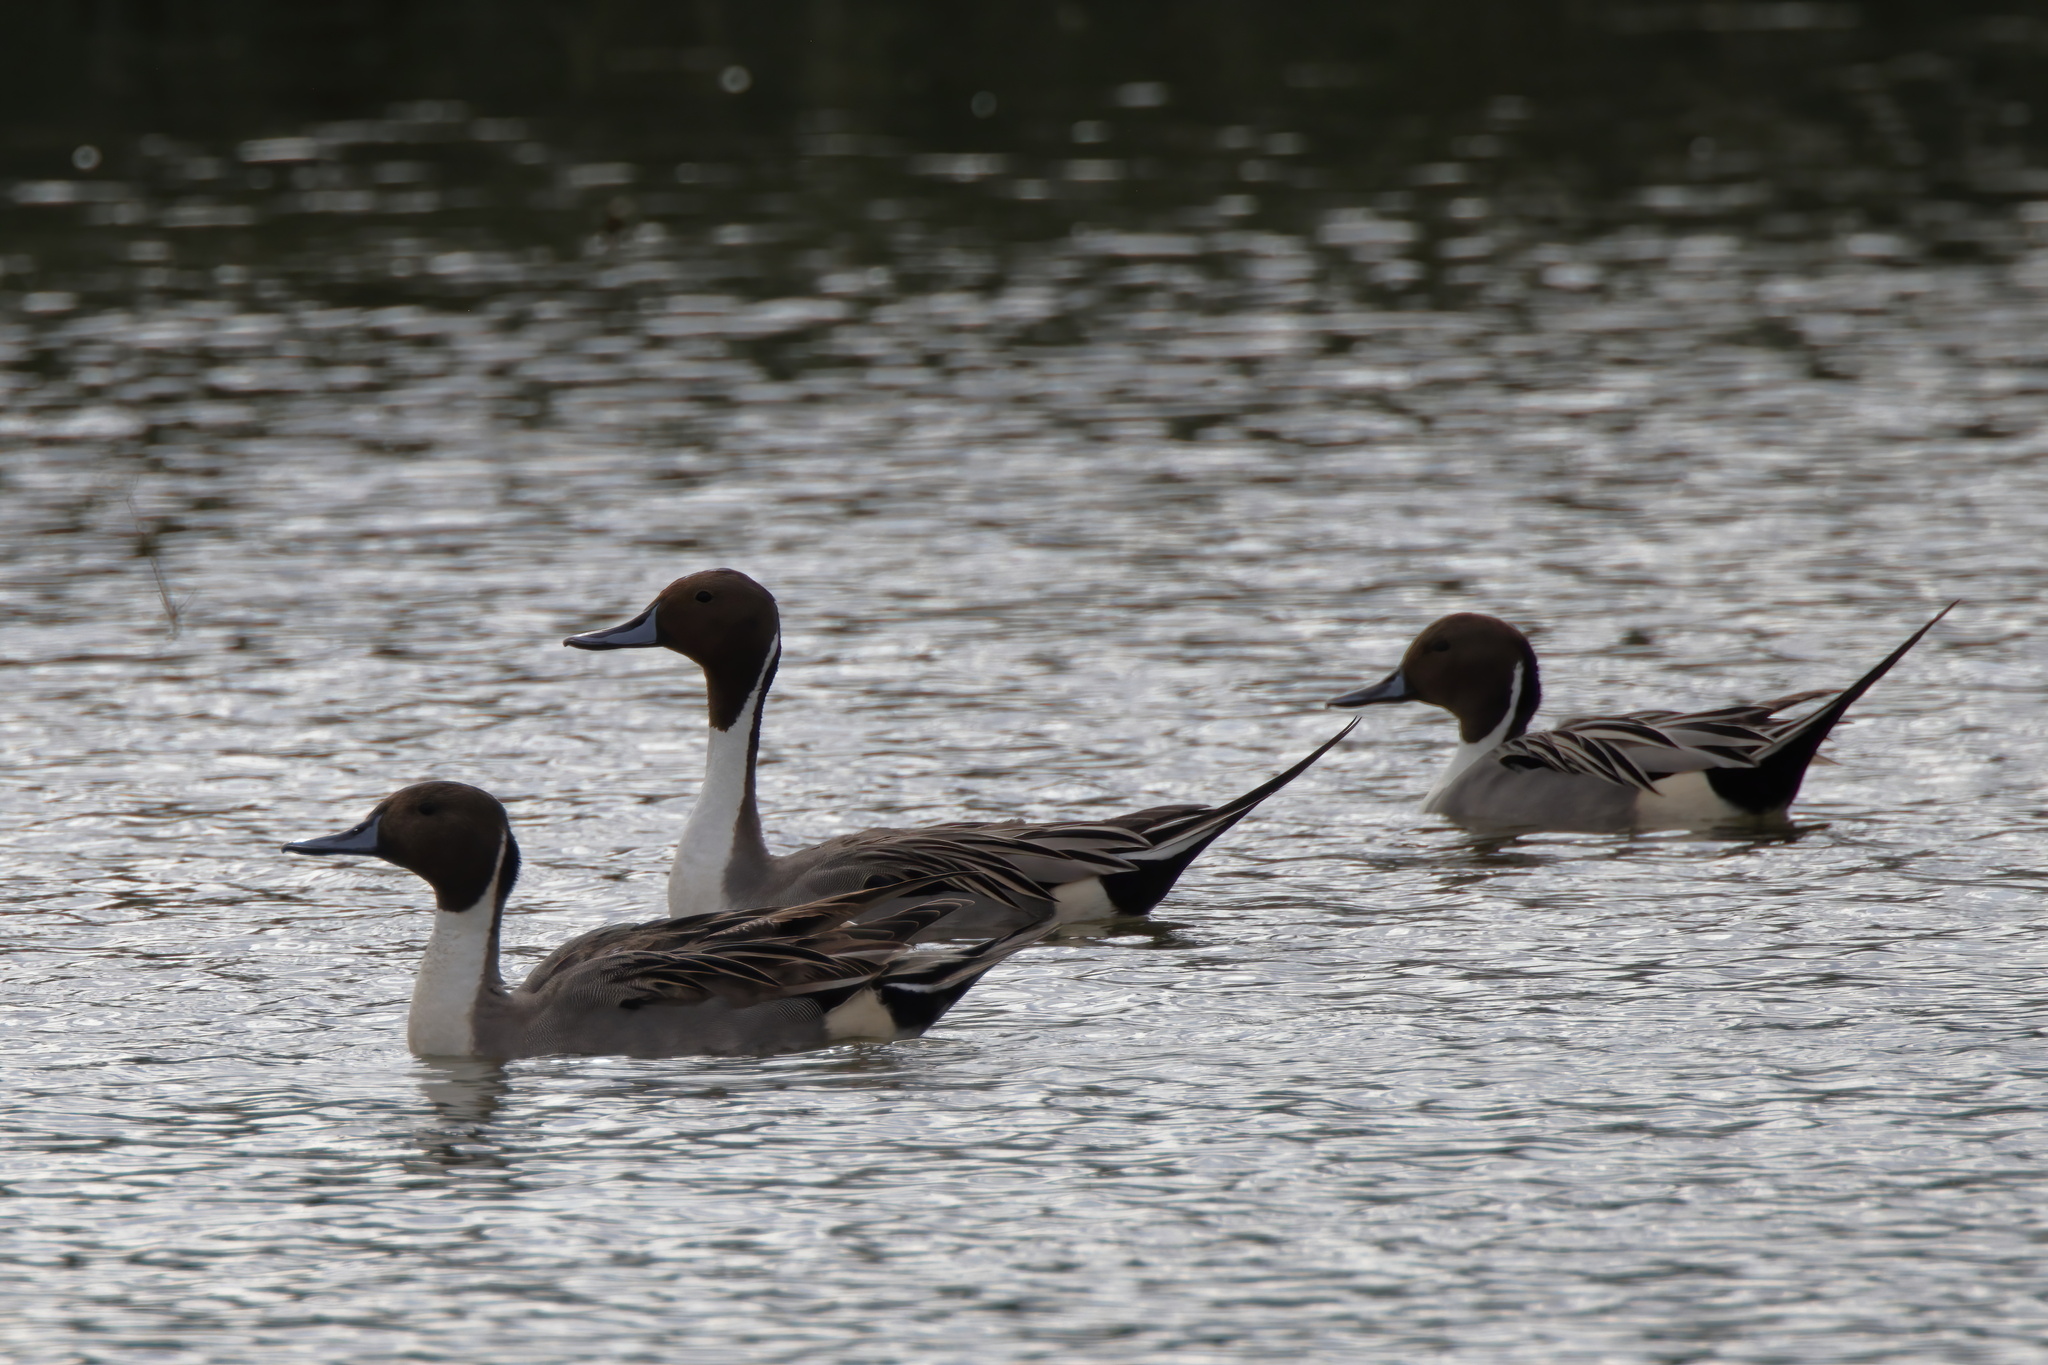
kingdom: Animalia
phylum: Chordata
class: Aves
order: Anseriformes
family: Anatidae
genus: Anas
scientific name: Anas acuta
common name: Northern pintail
